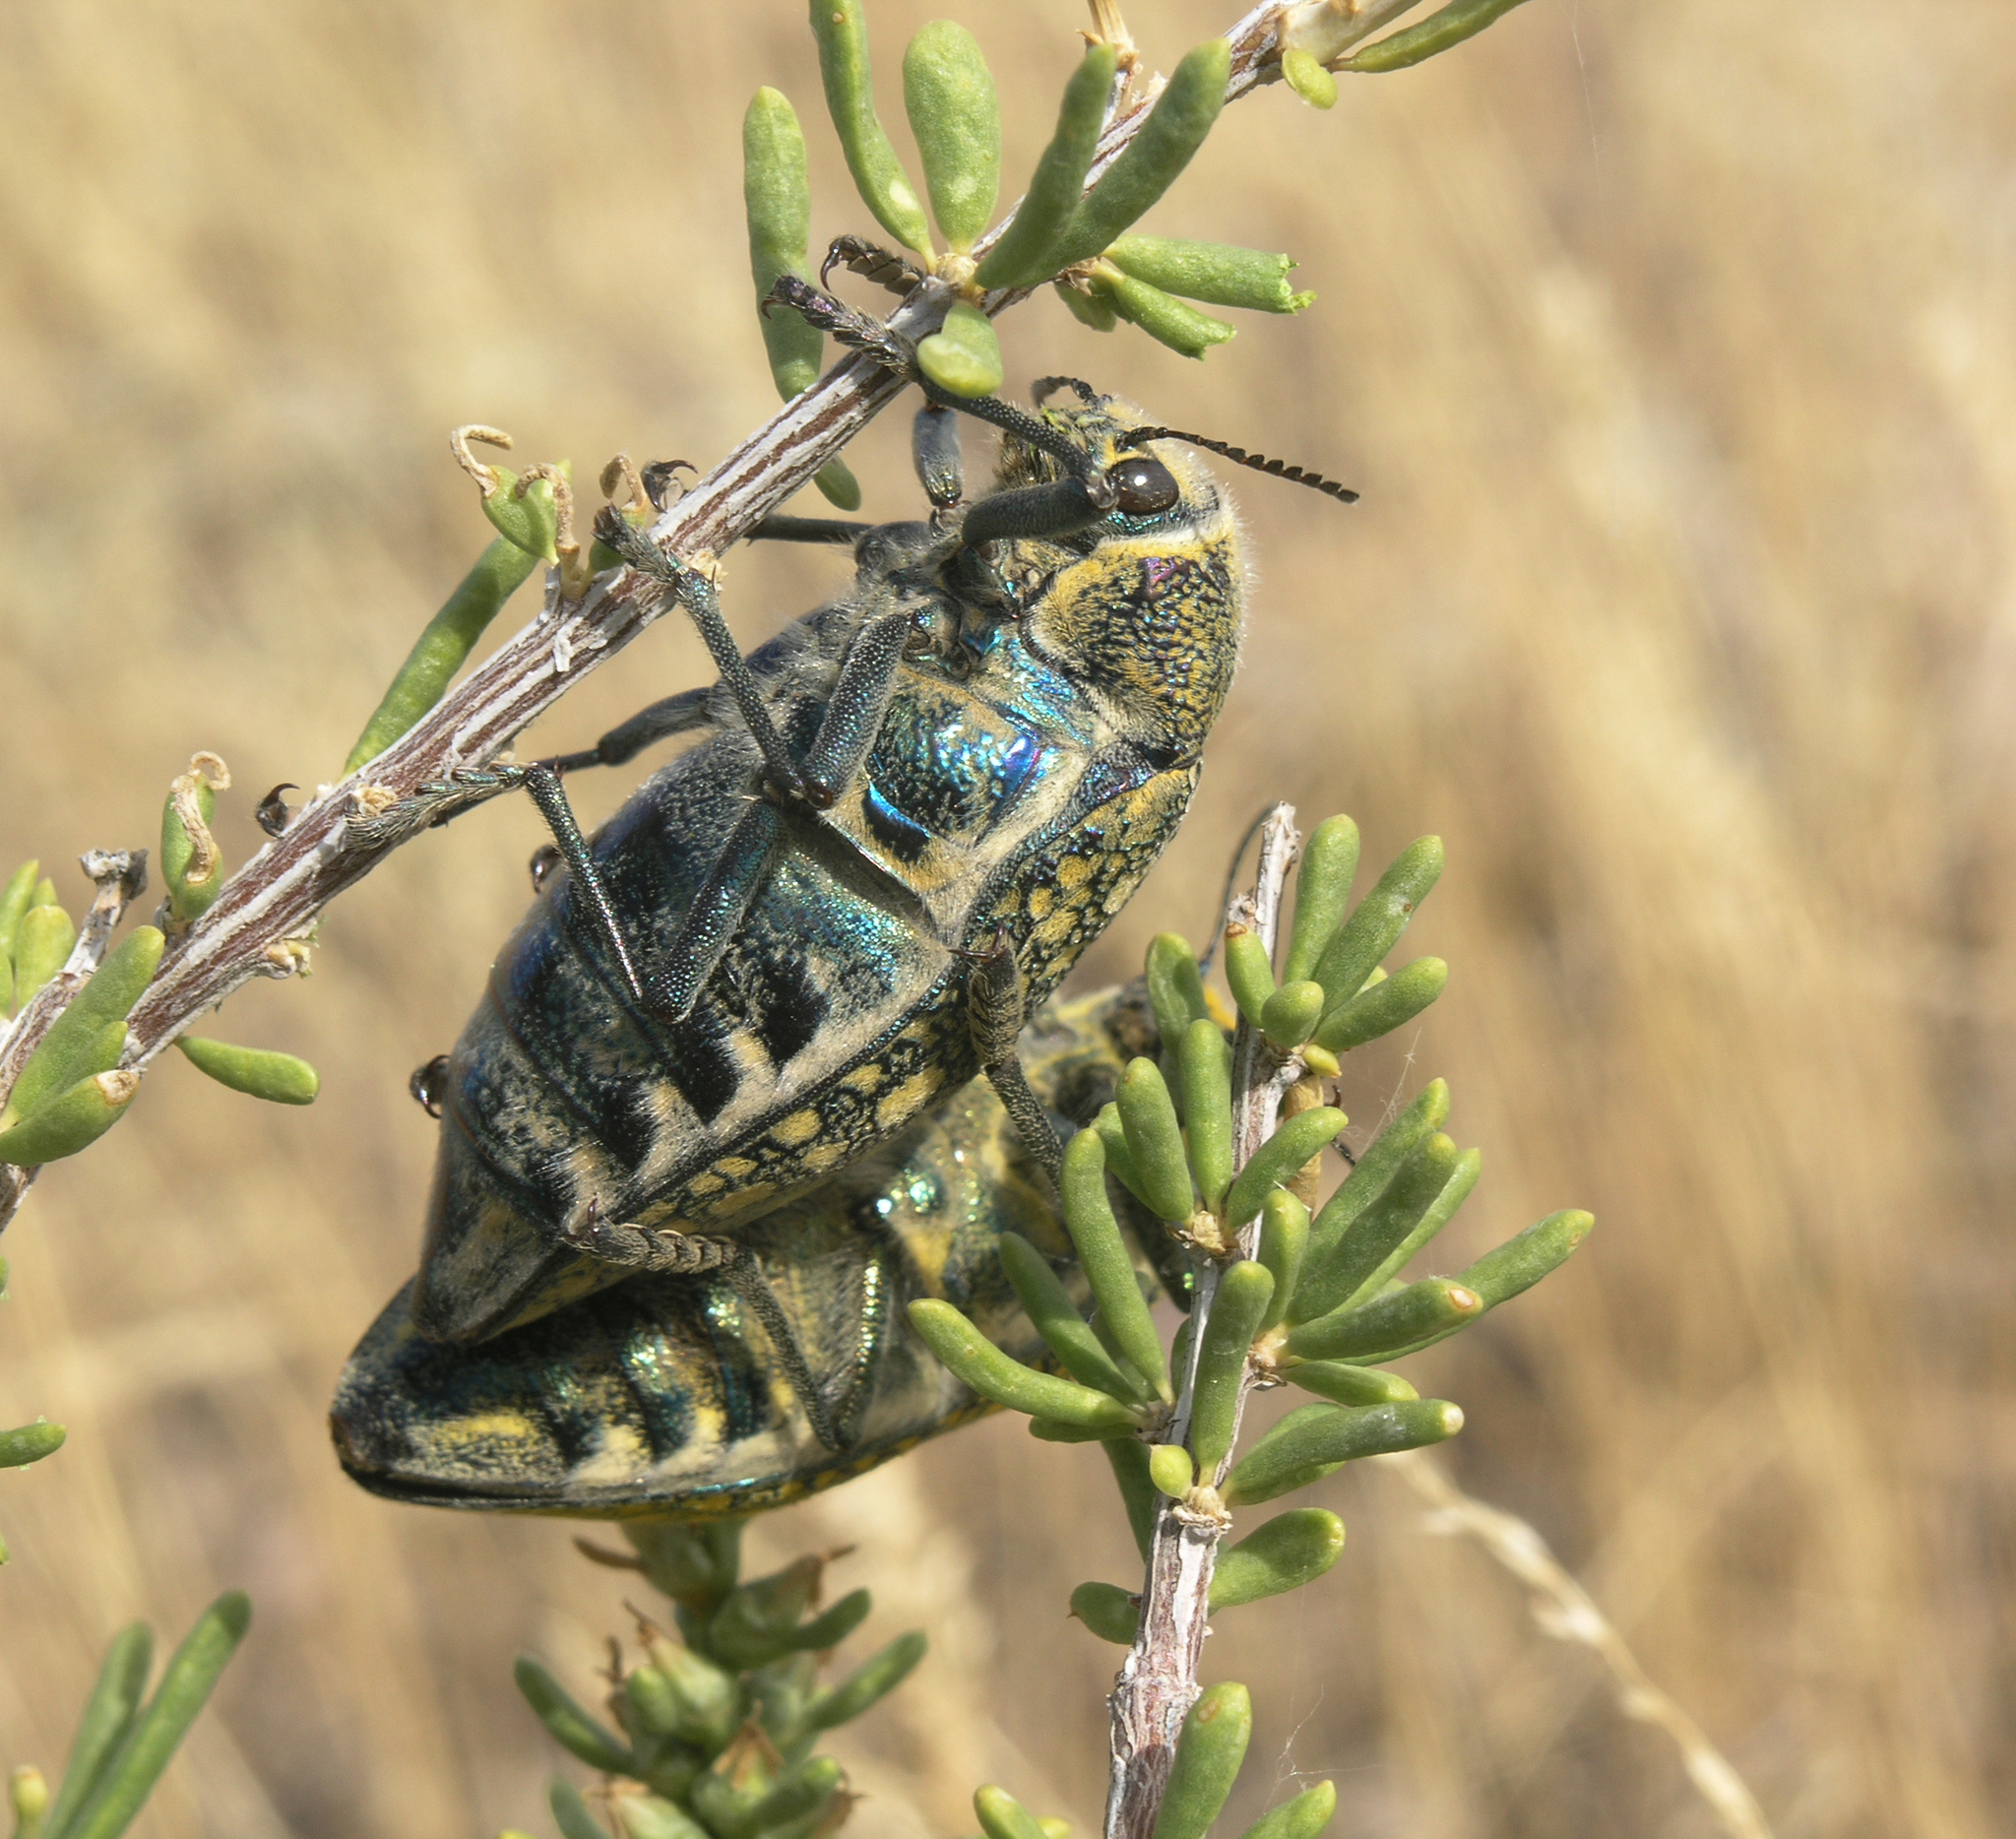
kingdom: Plantae
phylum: Tracheophyta
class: Magnoliopsida
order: Caryophyllales
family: Amaranthaceae
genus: Collinosalsola
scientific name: Collinosalsola arbusculiformis
